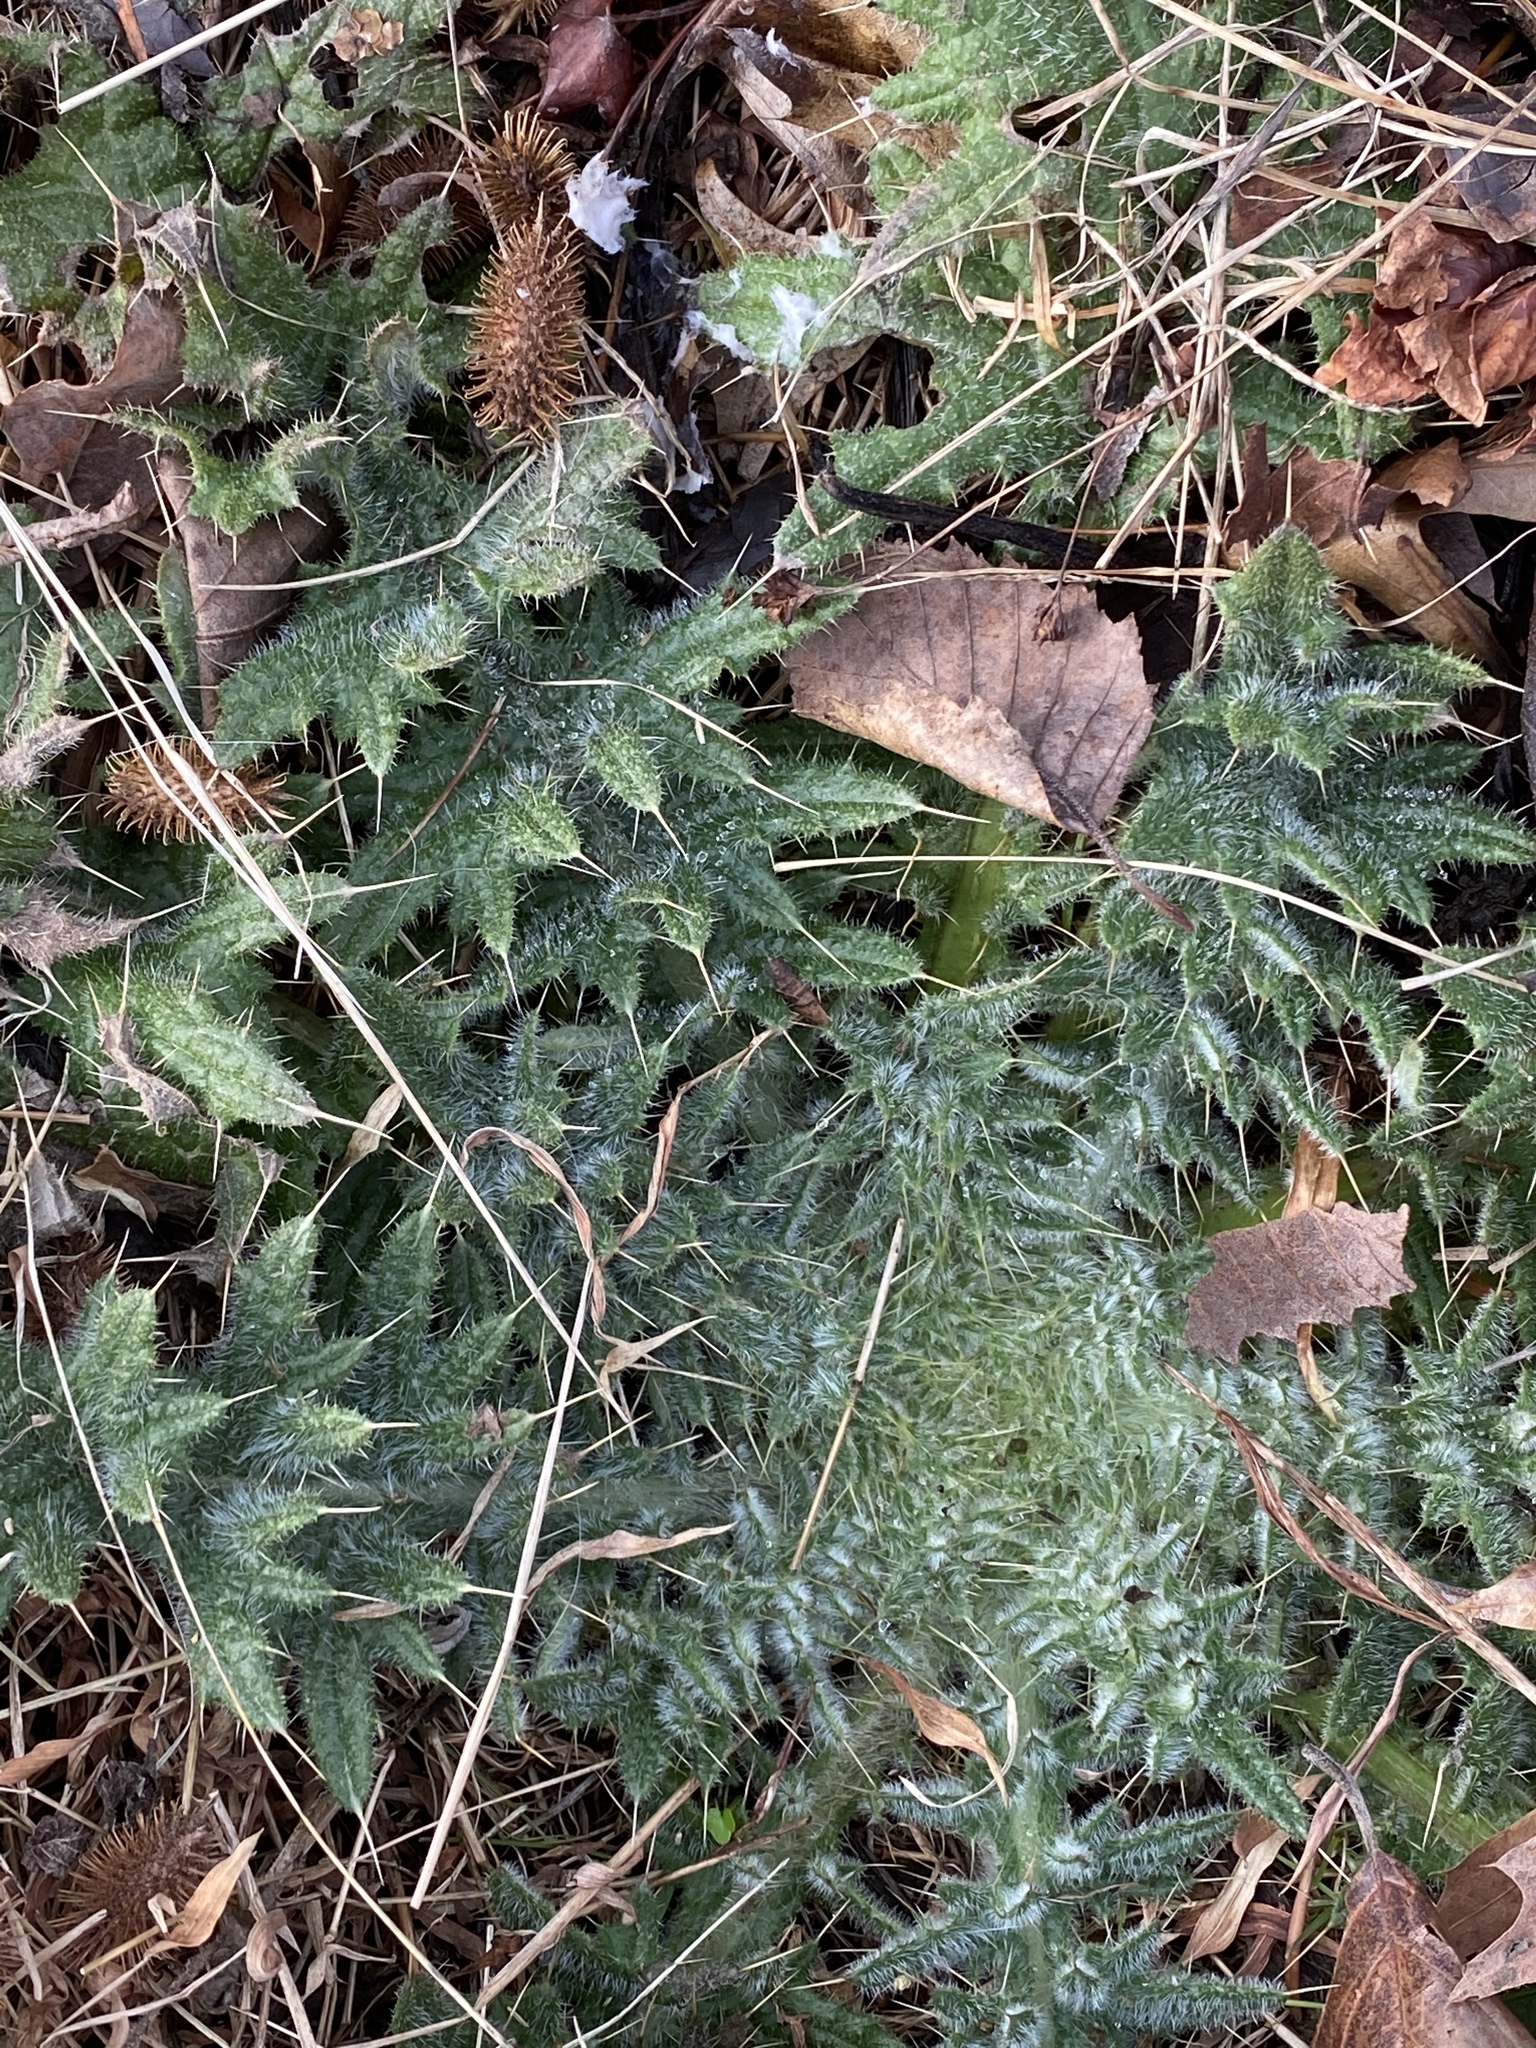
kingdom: Plantae
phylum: Tracheophyta
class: Magnoliopsida
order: Asterales
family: Asteraceae
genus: Cirsium
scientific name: Cirsium vulgare
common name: Bull thistle
